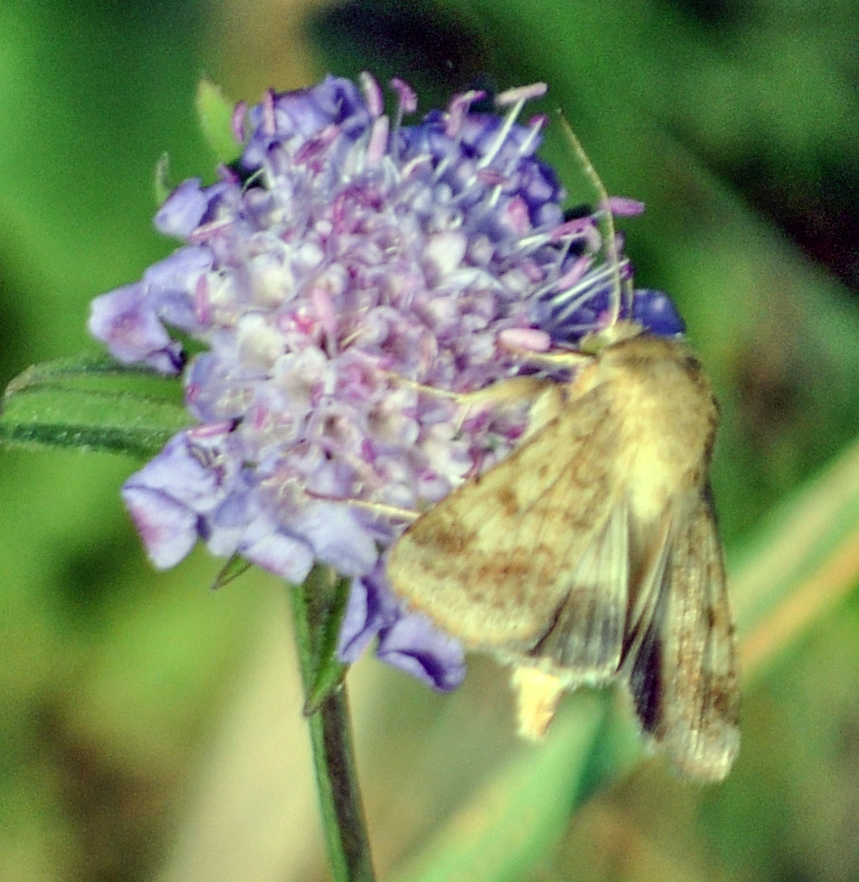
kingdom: Animalia
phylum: Arthropoda
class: Insecta
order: Lepidoptera
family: Noctuidae
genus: Helicoverpa
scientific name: Helicoverpa armigera
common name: Cotton bollworm
